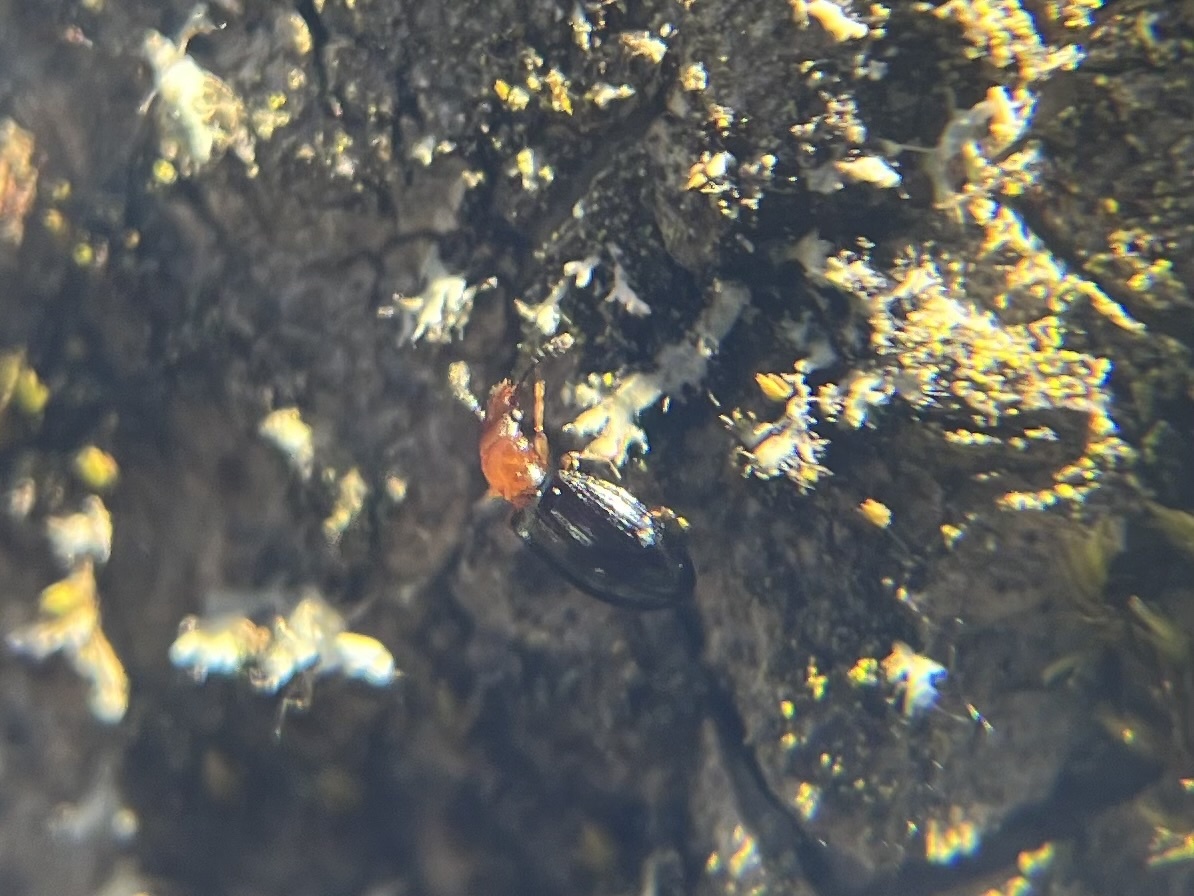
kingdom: Animalia
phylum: Arthropoda
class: Insecta
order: Coleoptera
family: Salpingidae
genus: Vincenzellus
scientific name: Vincenzellus ruficollis
